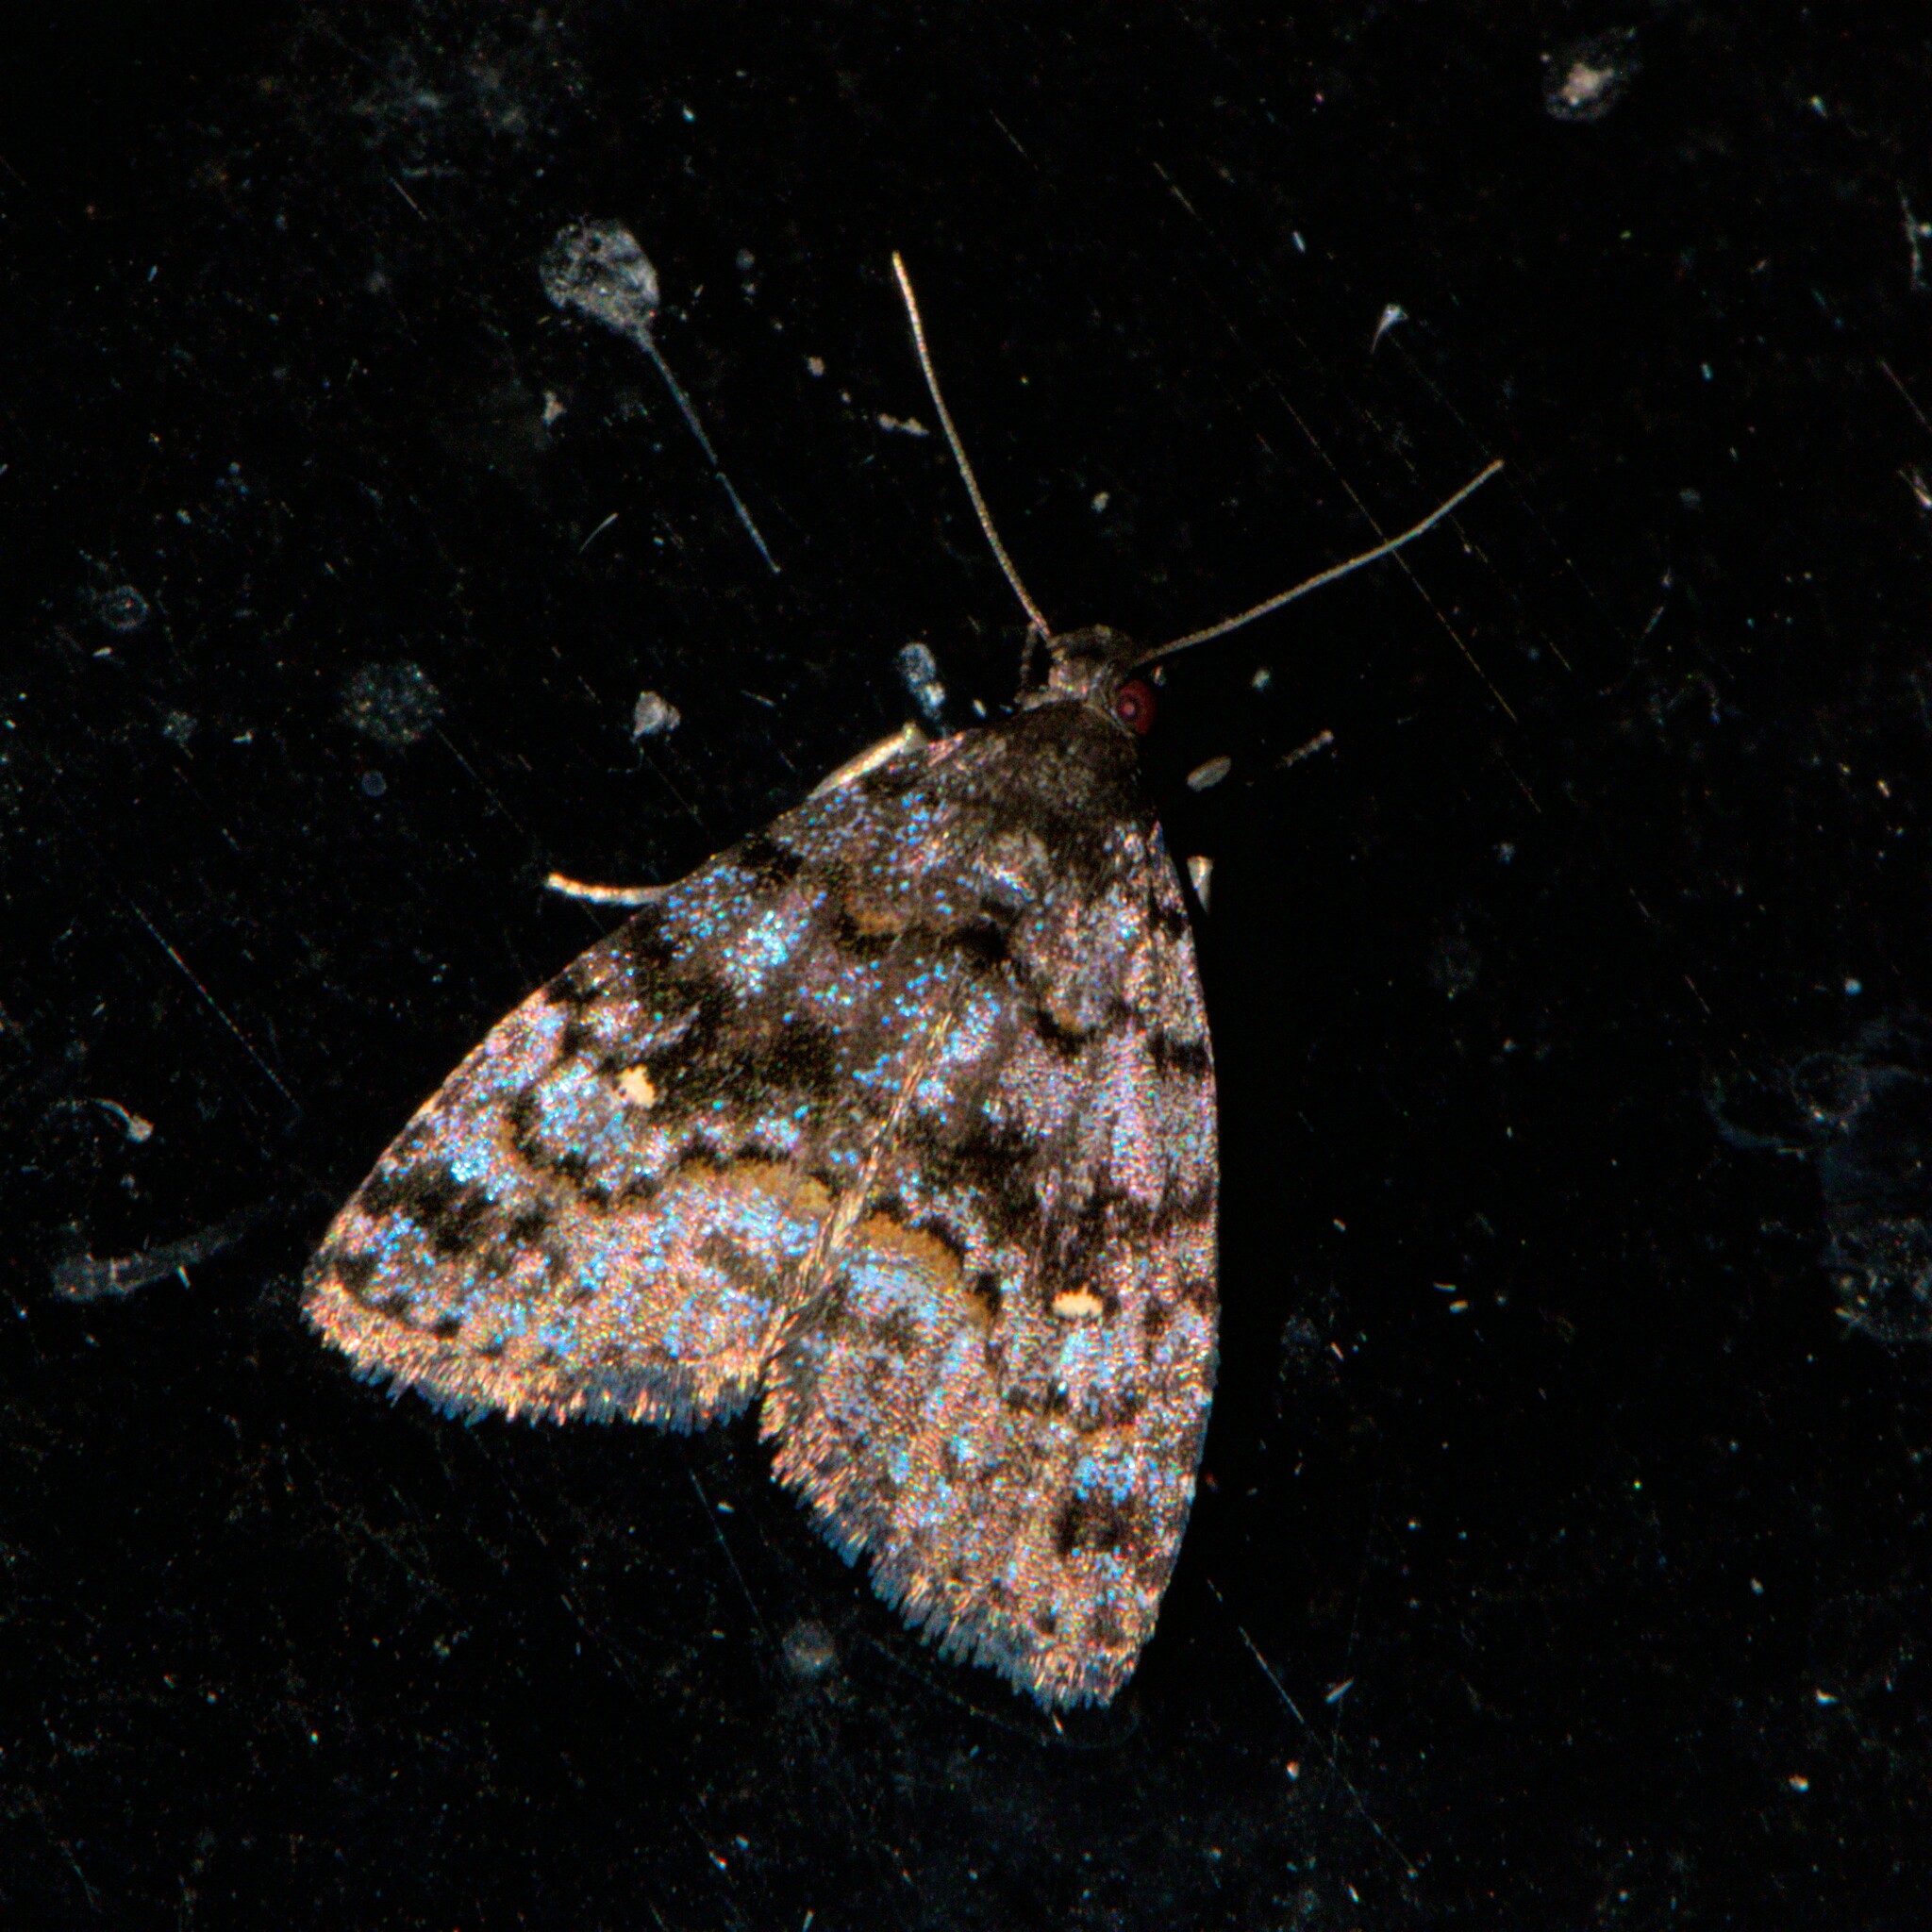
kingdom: Animalia
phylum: Arthropoda
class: Insecta
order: Lepidoptera
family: Erebidae
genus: Tadaxa
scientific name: Tadaxa
